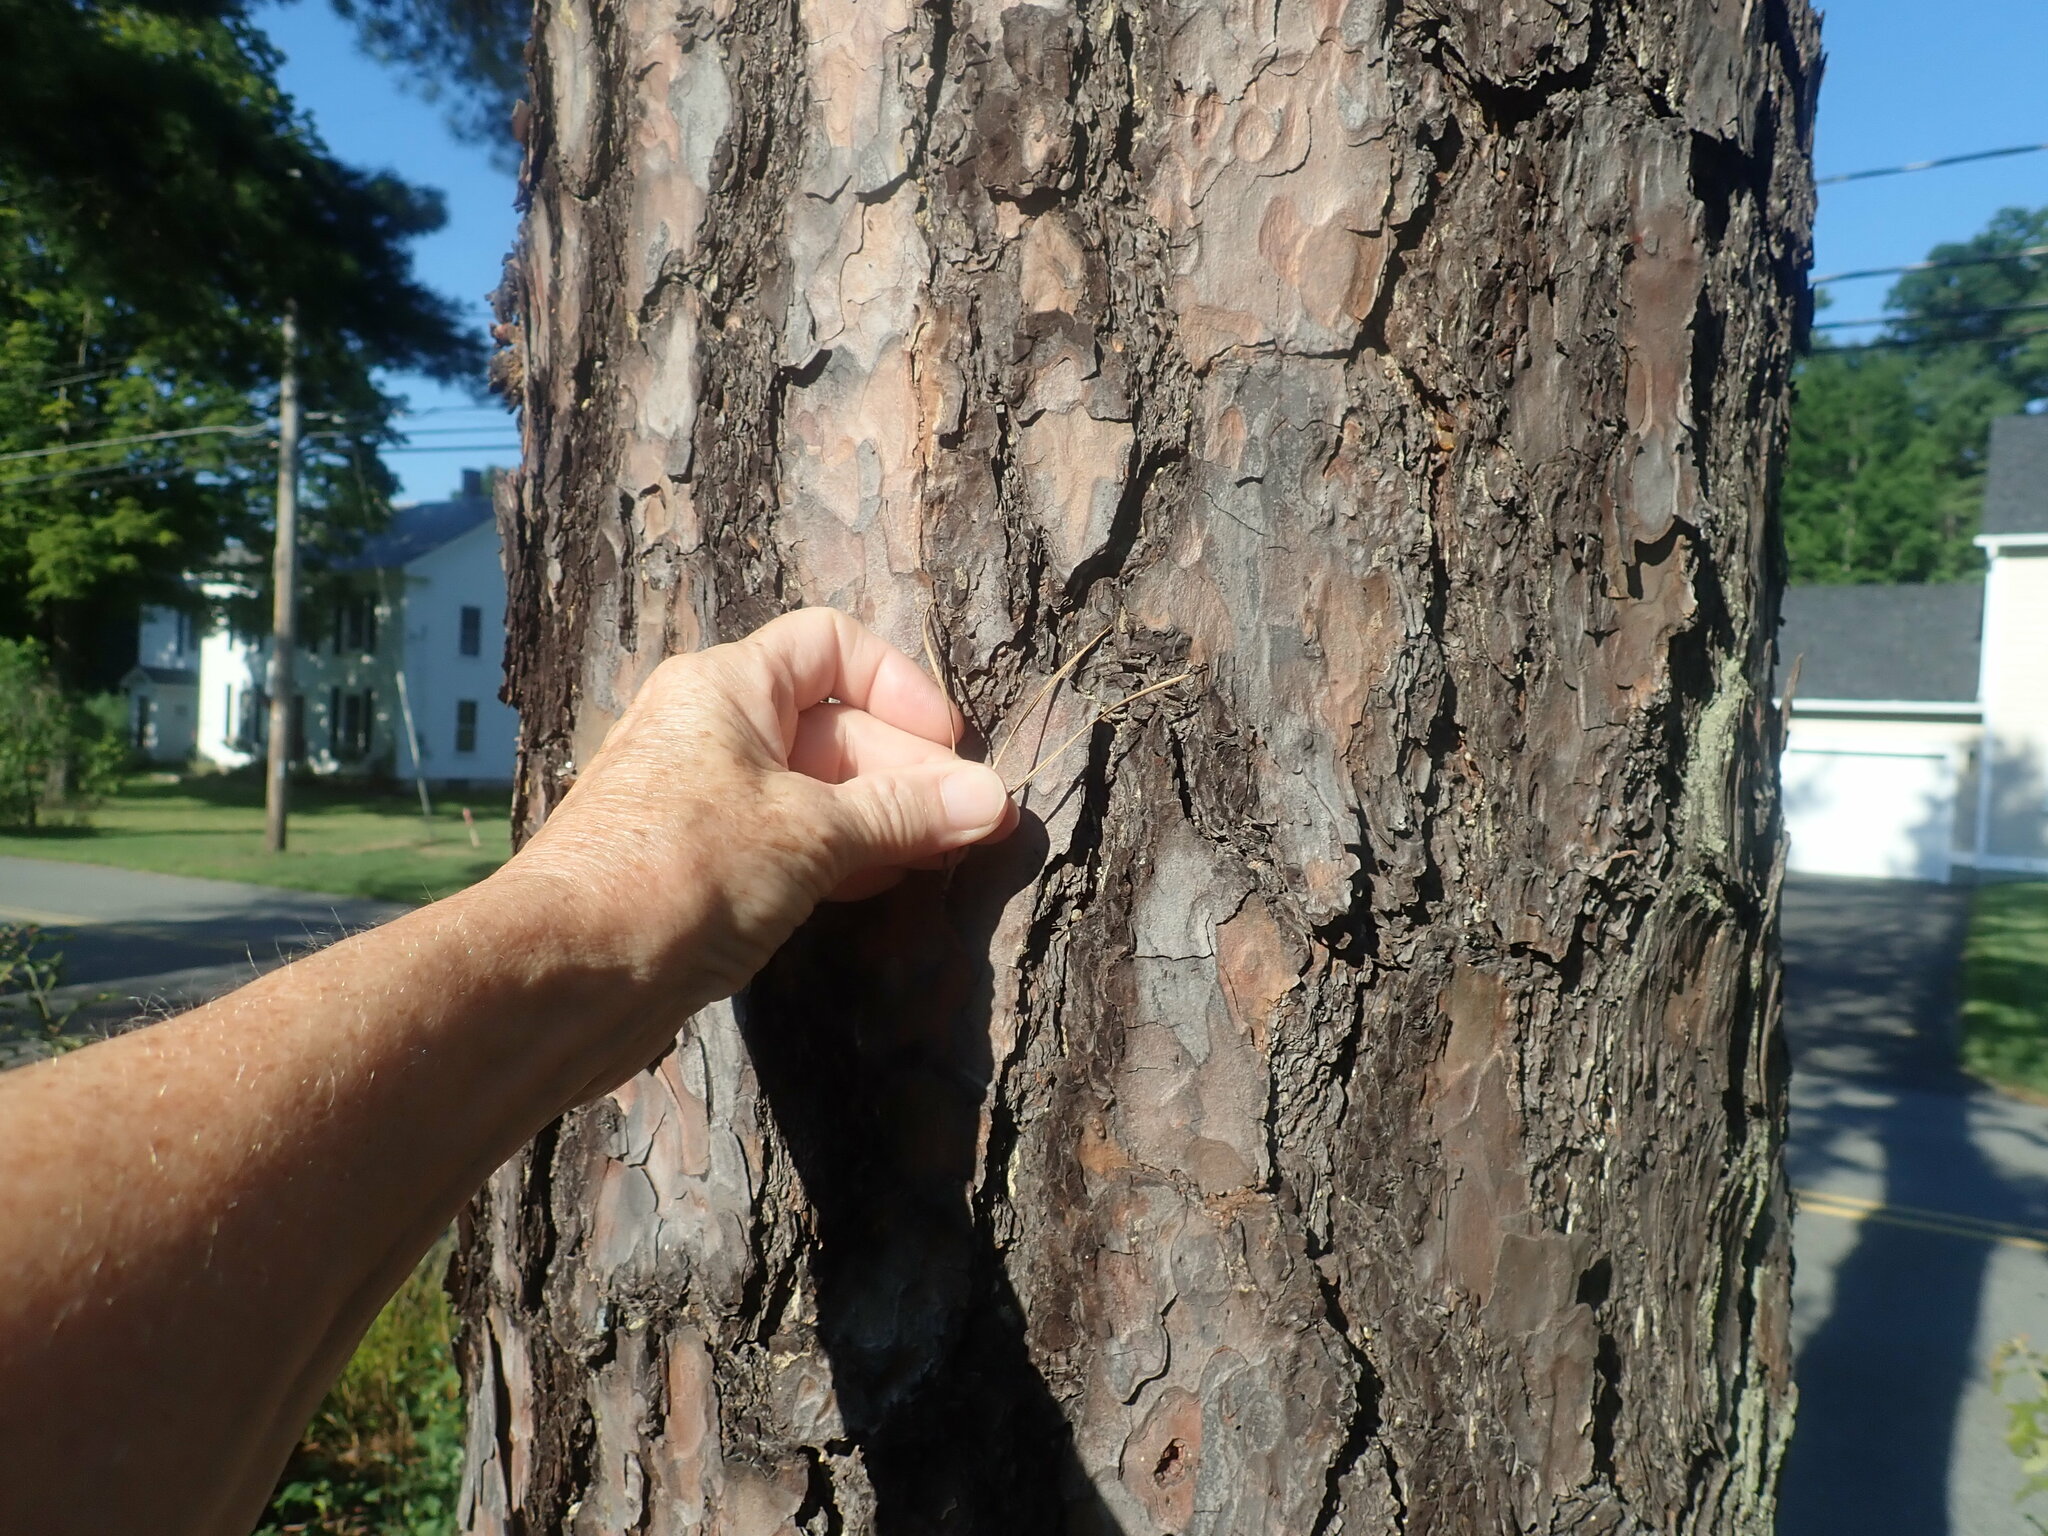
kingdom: Plantae
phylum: Tracheophyta
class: Pinopsida
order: Pinales
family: Pinaceae
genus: Pinus
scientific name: Pinus rigida
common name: Pitch pine
